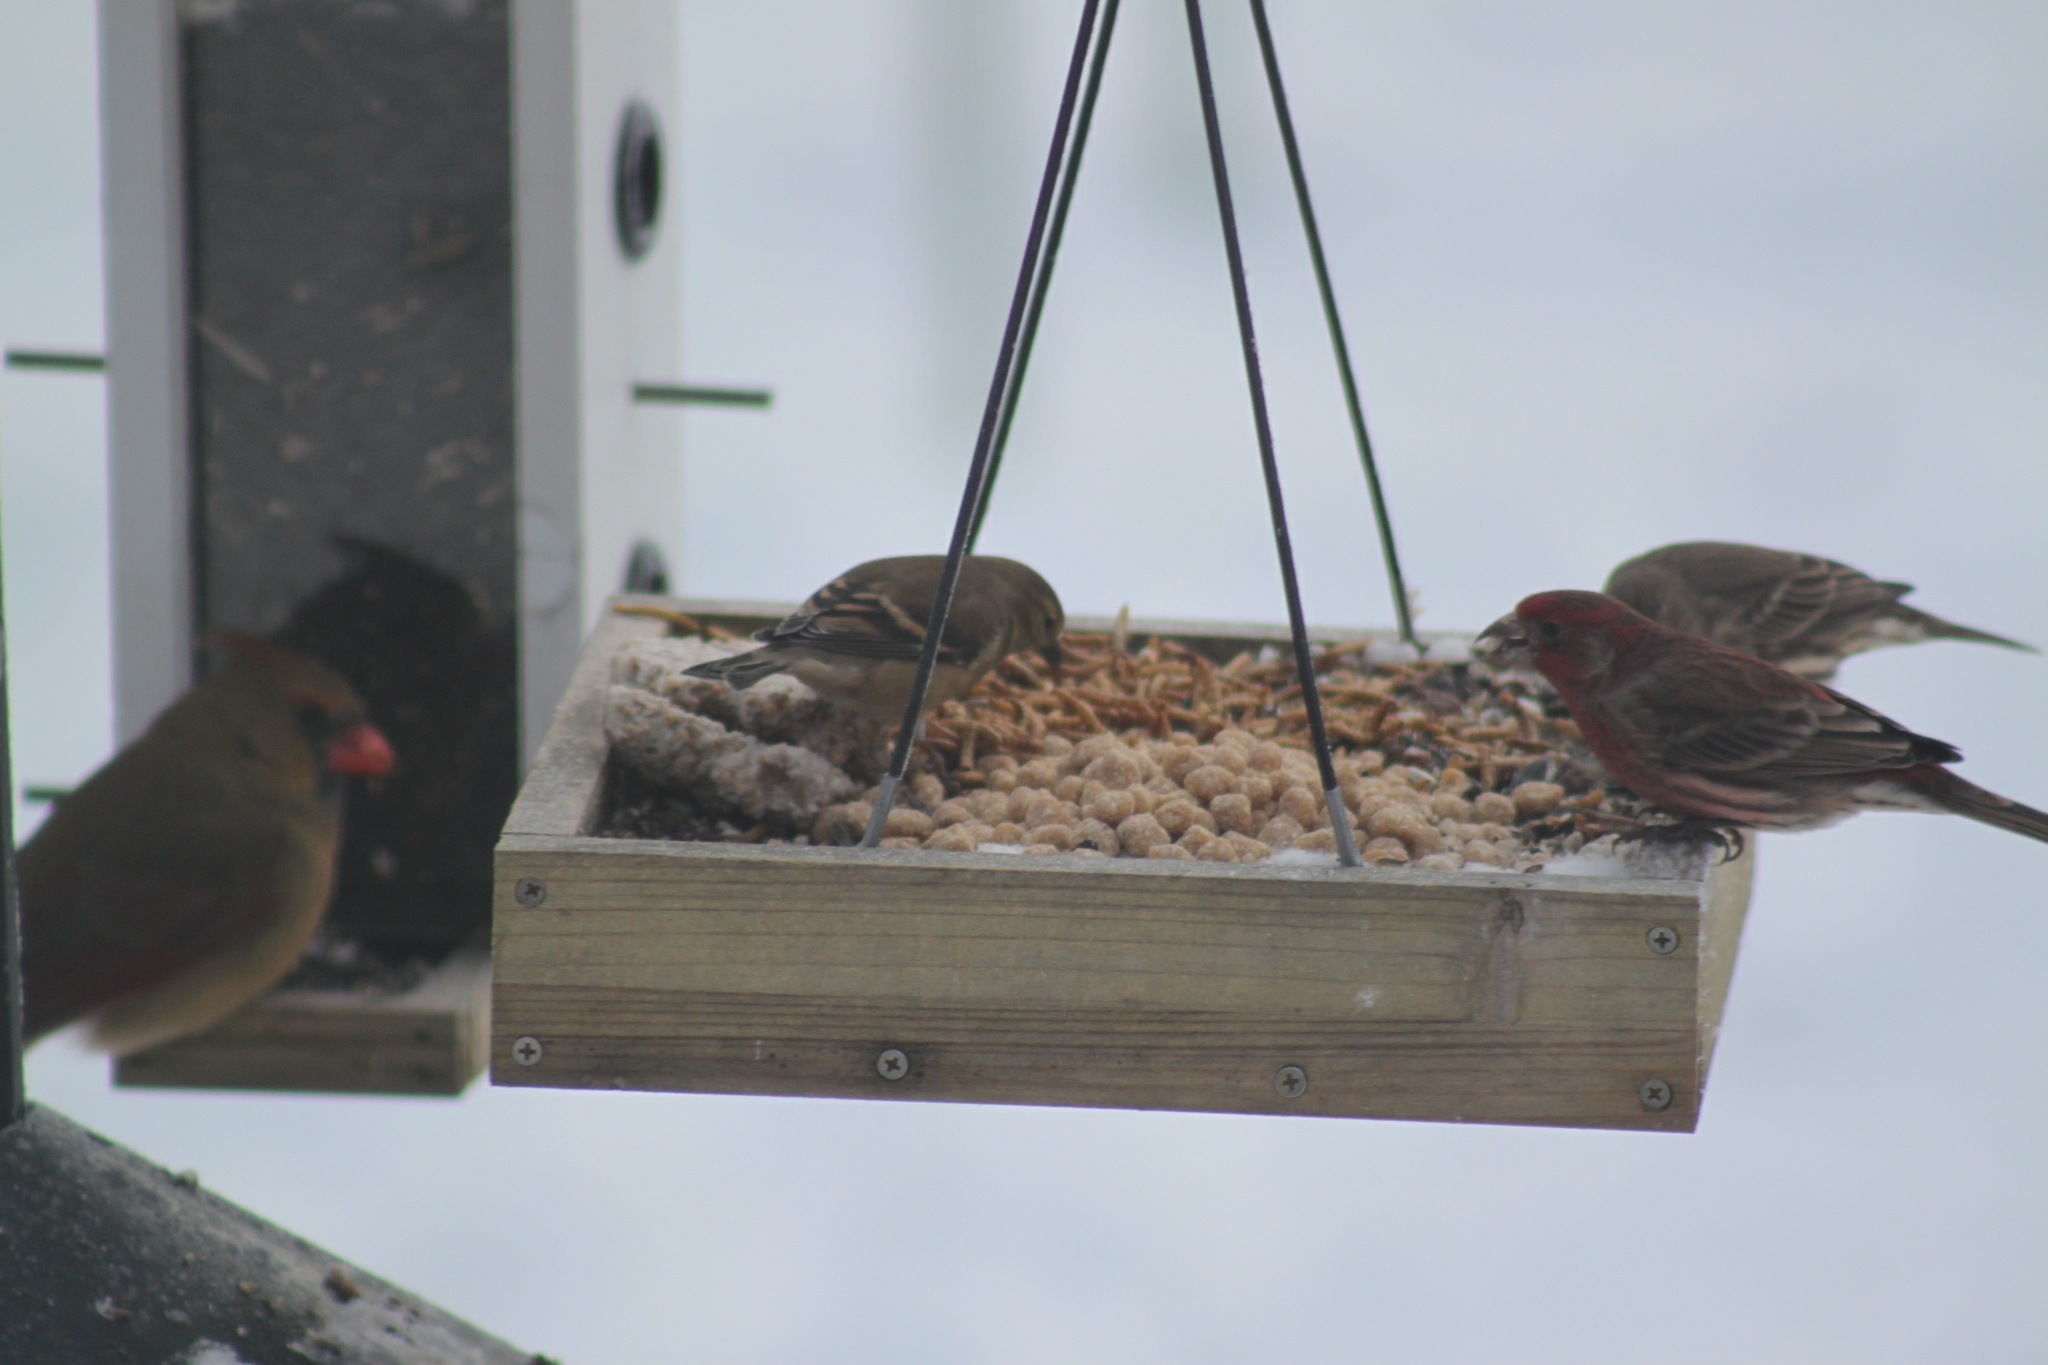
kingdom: Animalia
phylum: Chordata
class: Aves
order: Passeriformes
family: Fringillidae
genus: Haemorhous
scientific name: Haemorhous mexicanus
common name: House finch
